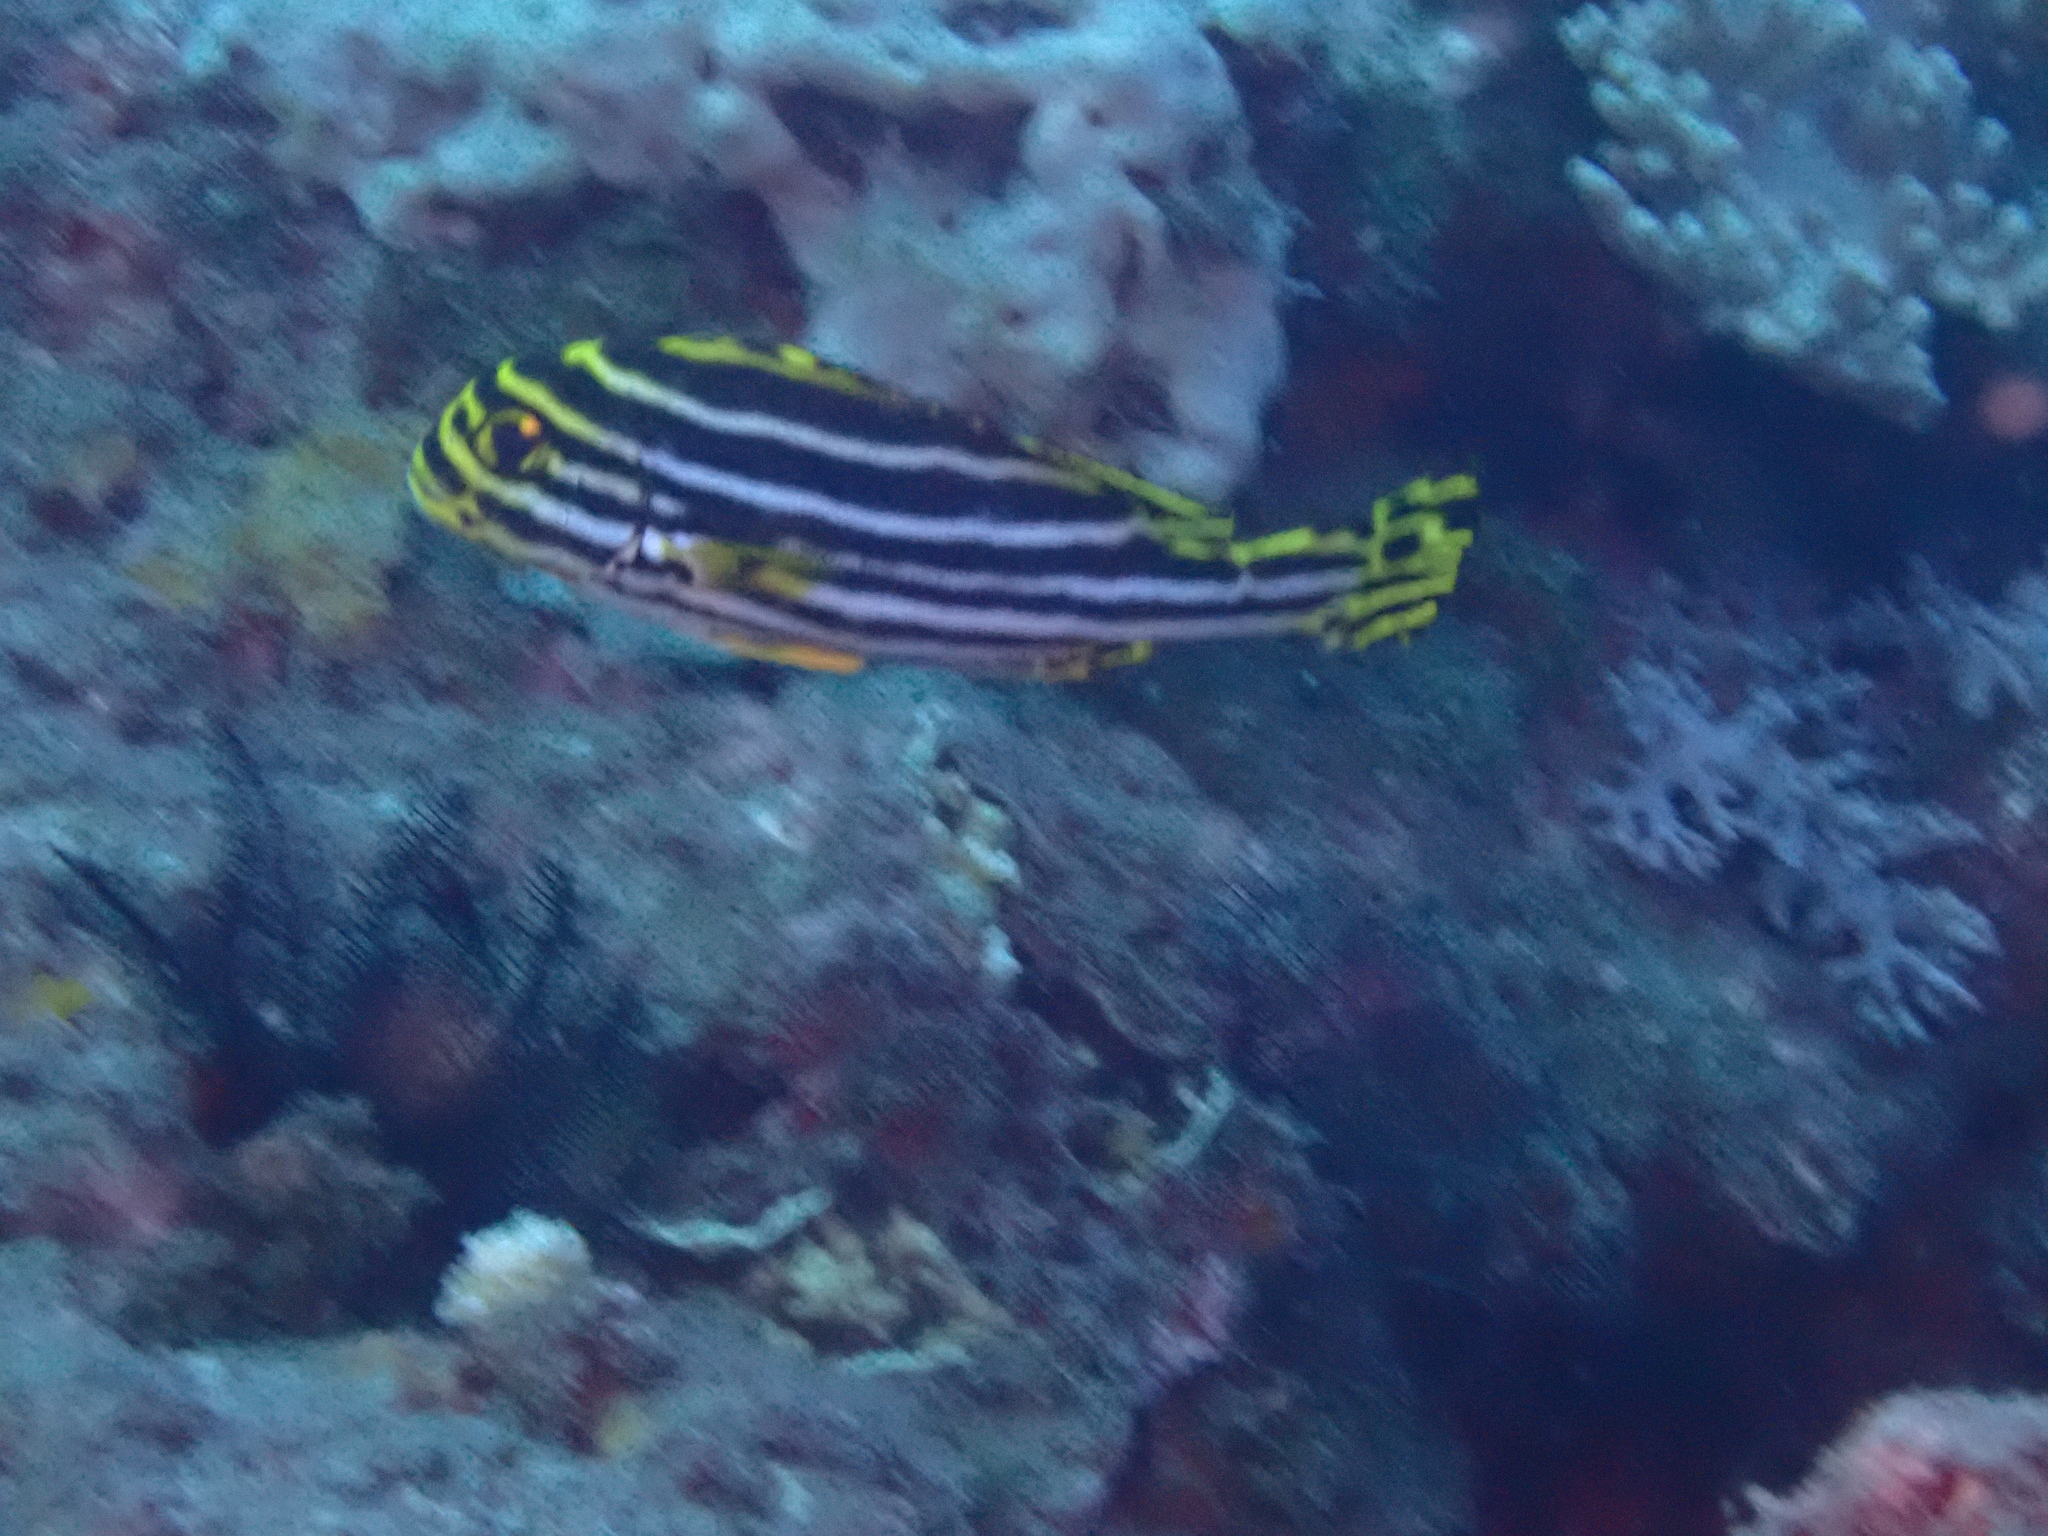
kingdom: Animalia
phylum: Chordata
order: Perciformes
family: Haemulidae
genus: Plectorhinchus
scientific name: Plectorhinchus vittatus
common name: Oriental sweetlips
